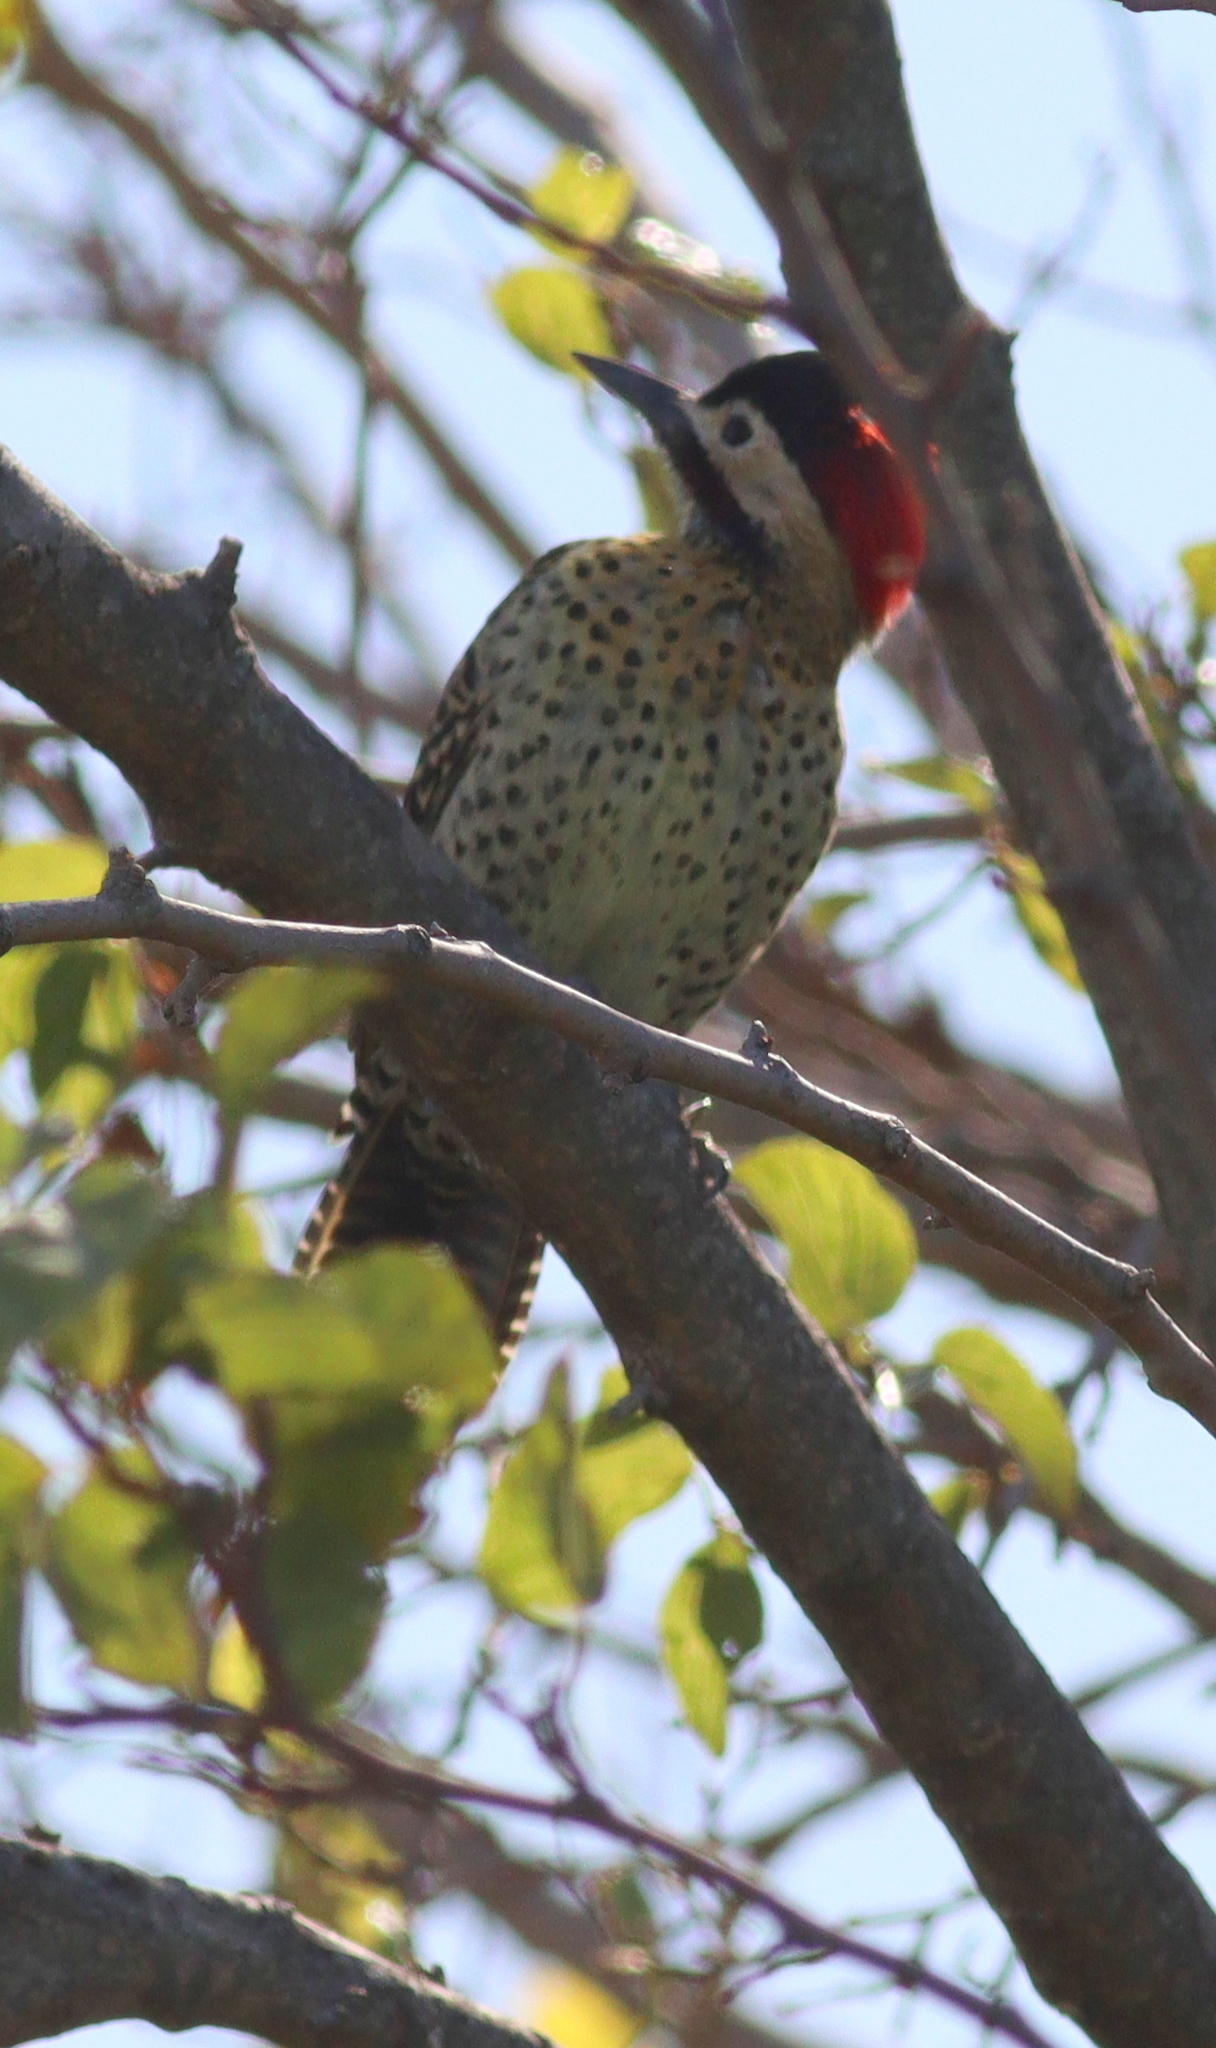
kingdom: Animalia
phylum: Chordata
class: Aves
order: Piciformes
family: Picidae
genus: Colaptes
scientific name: Colaptes melanochloros
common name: Green-barred woodpecker
